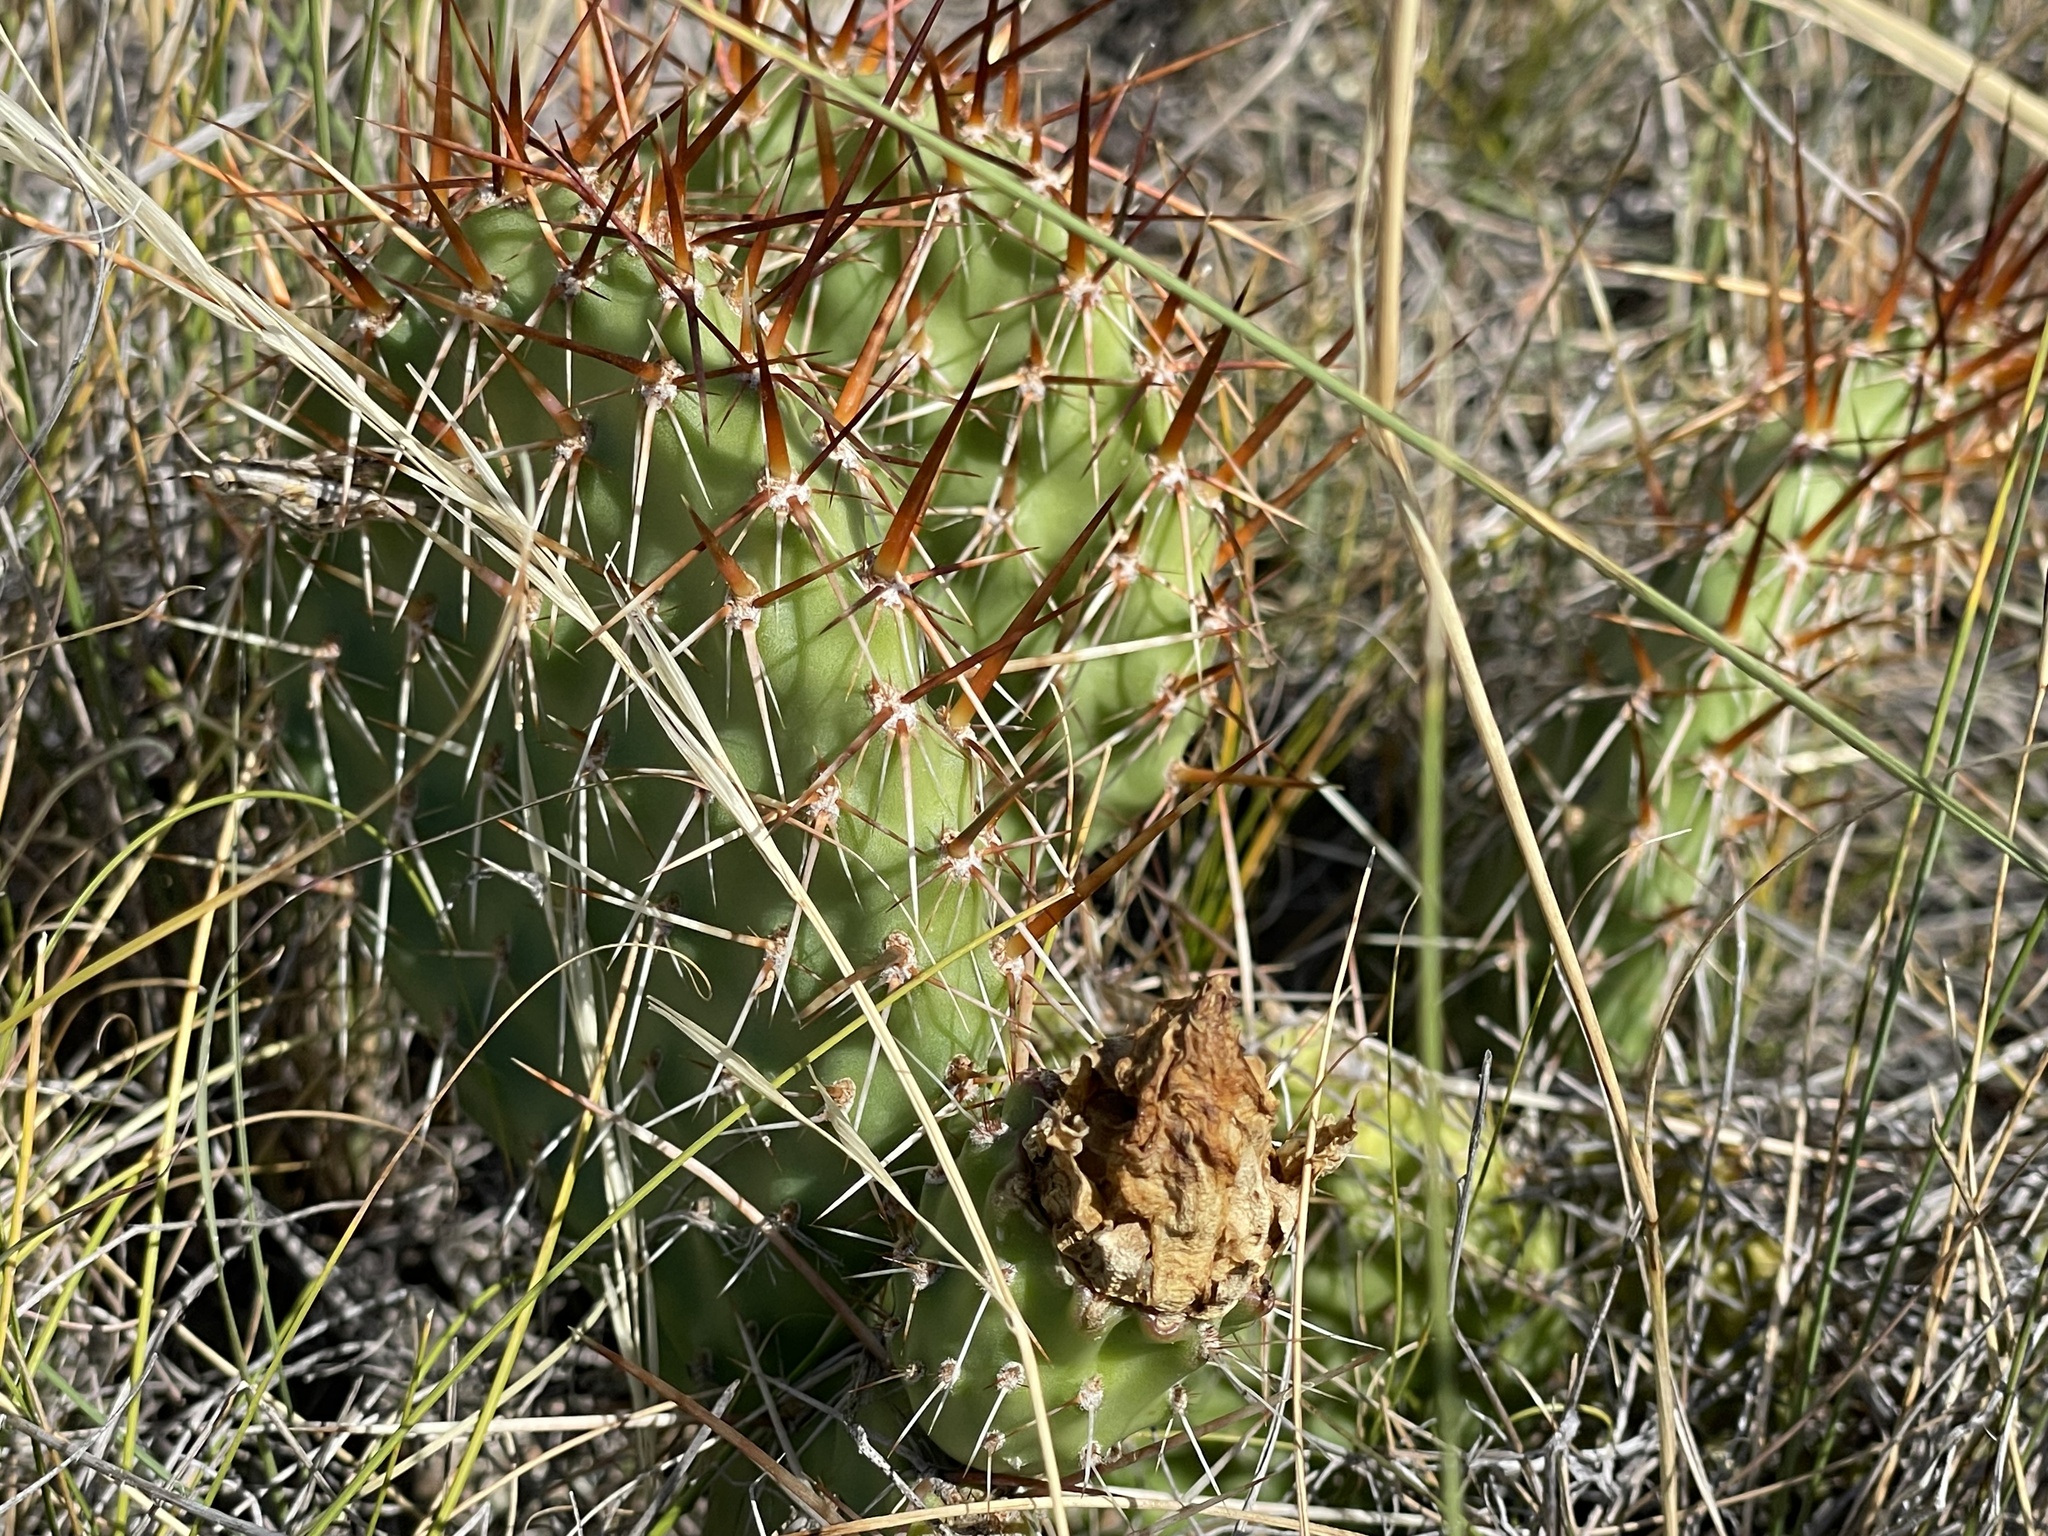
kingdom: Plantae
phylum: Tracheophyta
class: Magnoliopsida
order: Caryophyllales
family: Cactaceae
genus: Opuntia
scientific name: Opuntia polyacantha
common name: Plains prickly-pear
